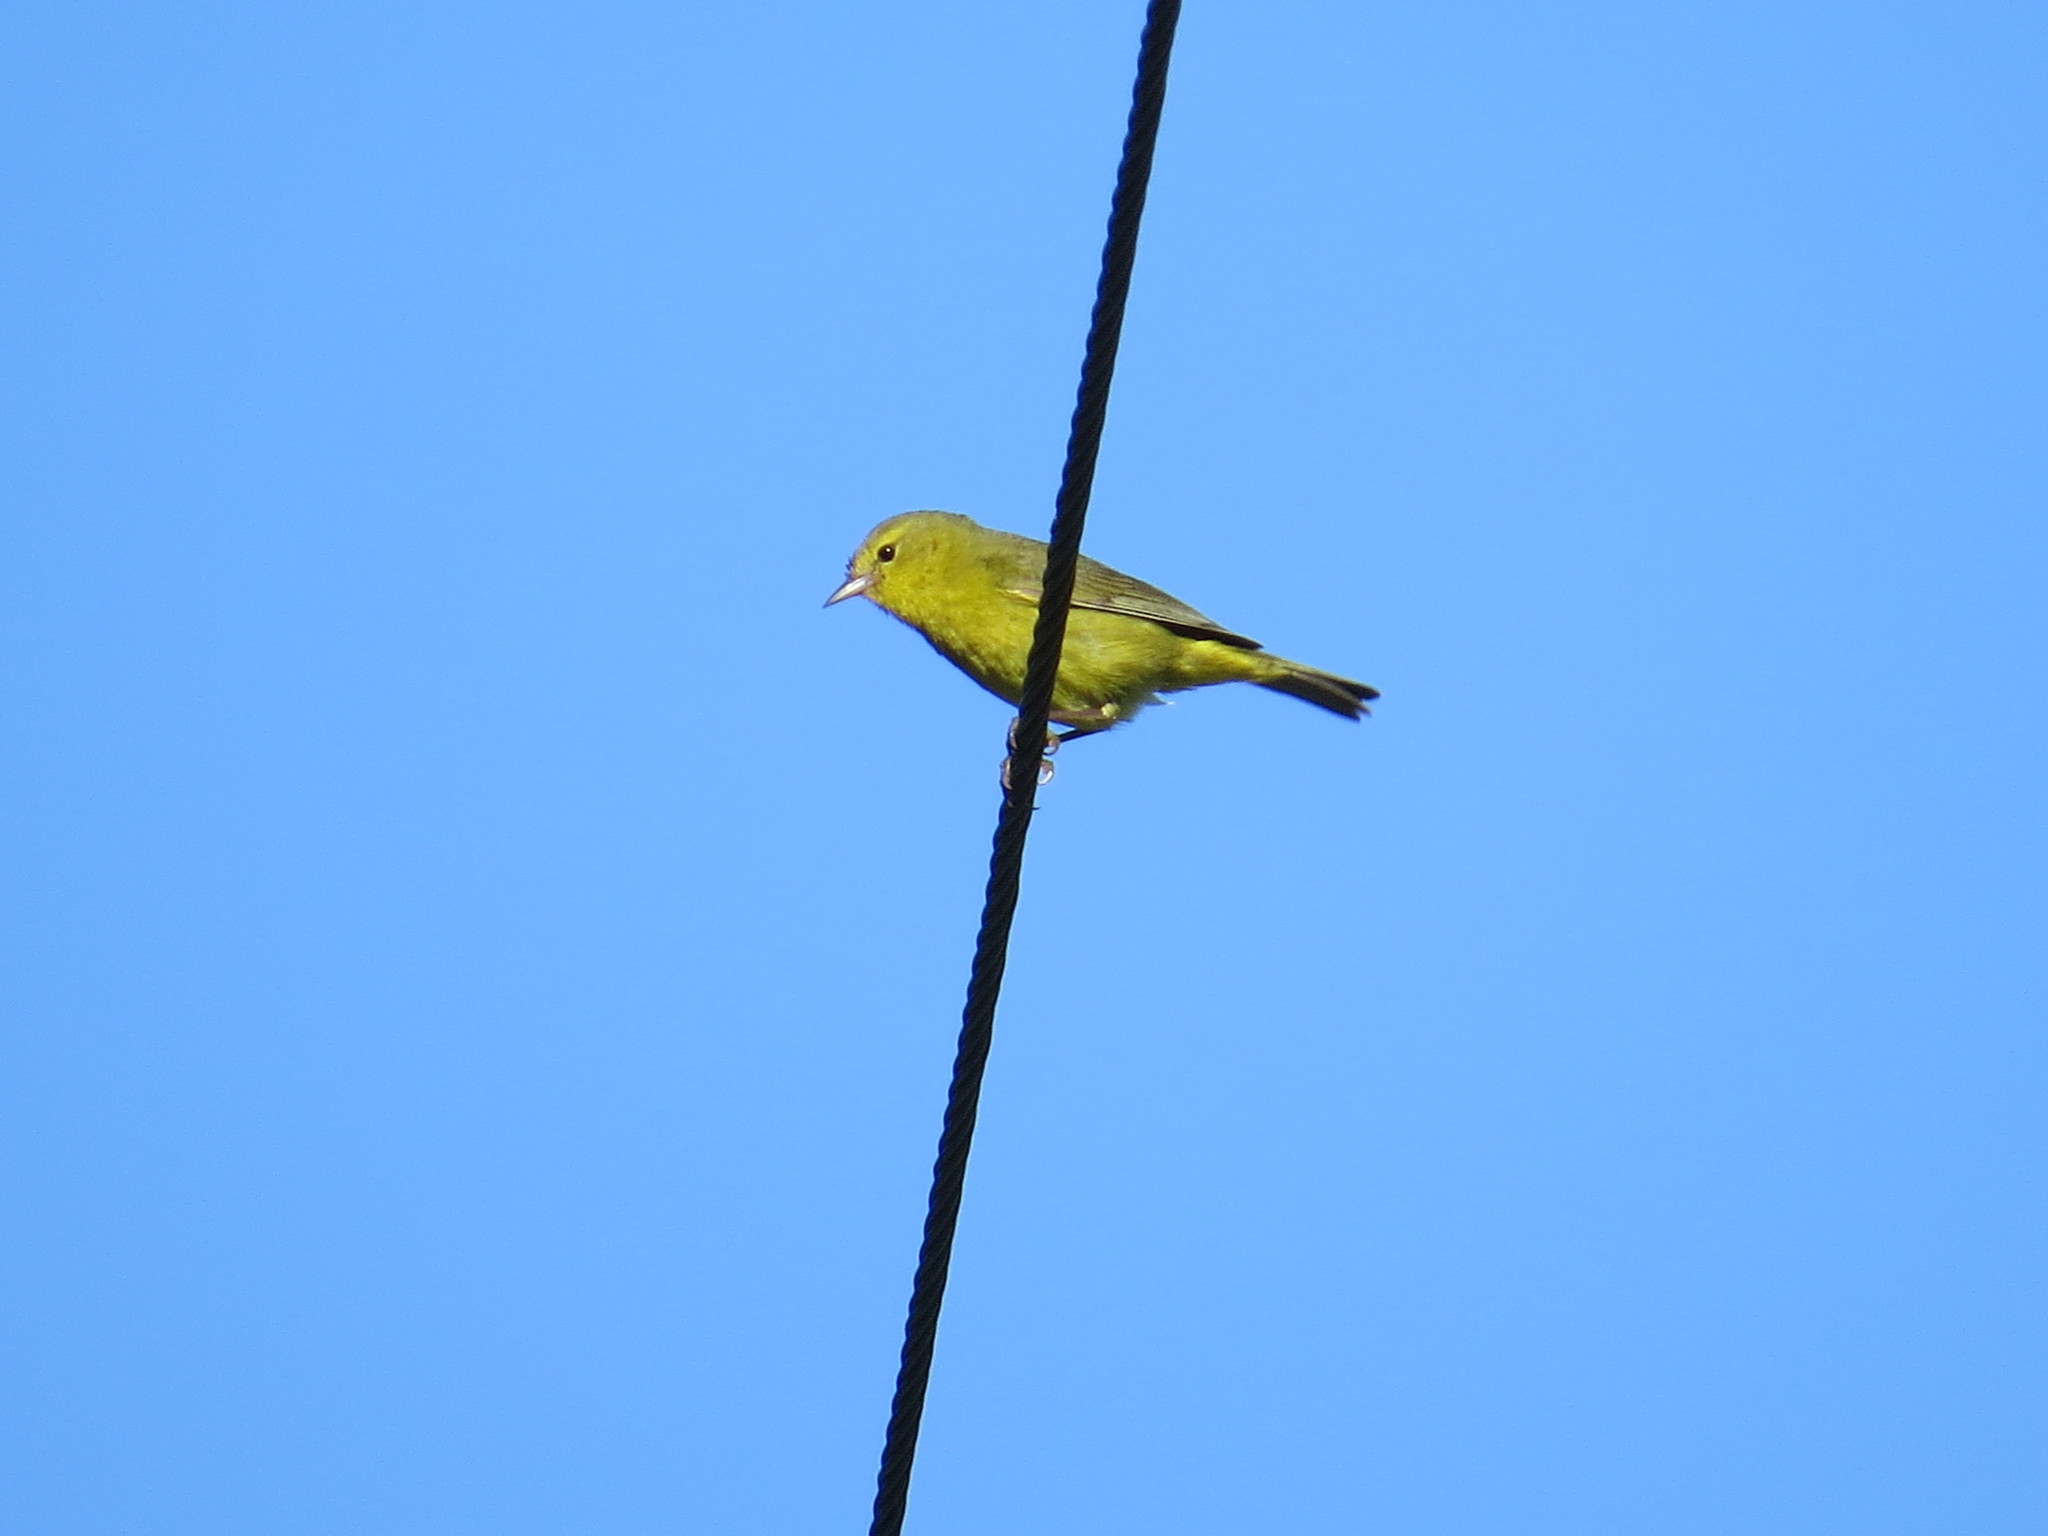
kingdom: Animalia
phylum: Chordata
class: Aves
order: Passeriformes
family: Parulidae
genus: Leiothlypis
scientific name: Leiothlypis celata
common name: Orange-crowned warbler
